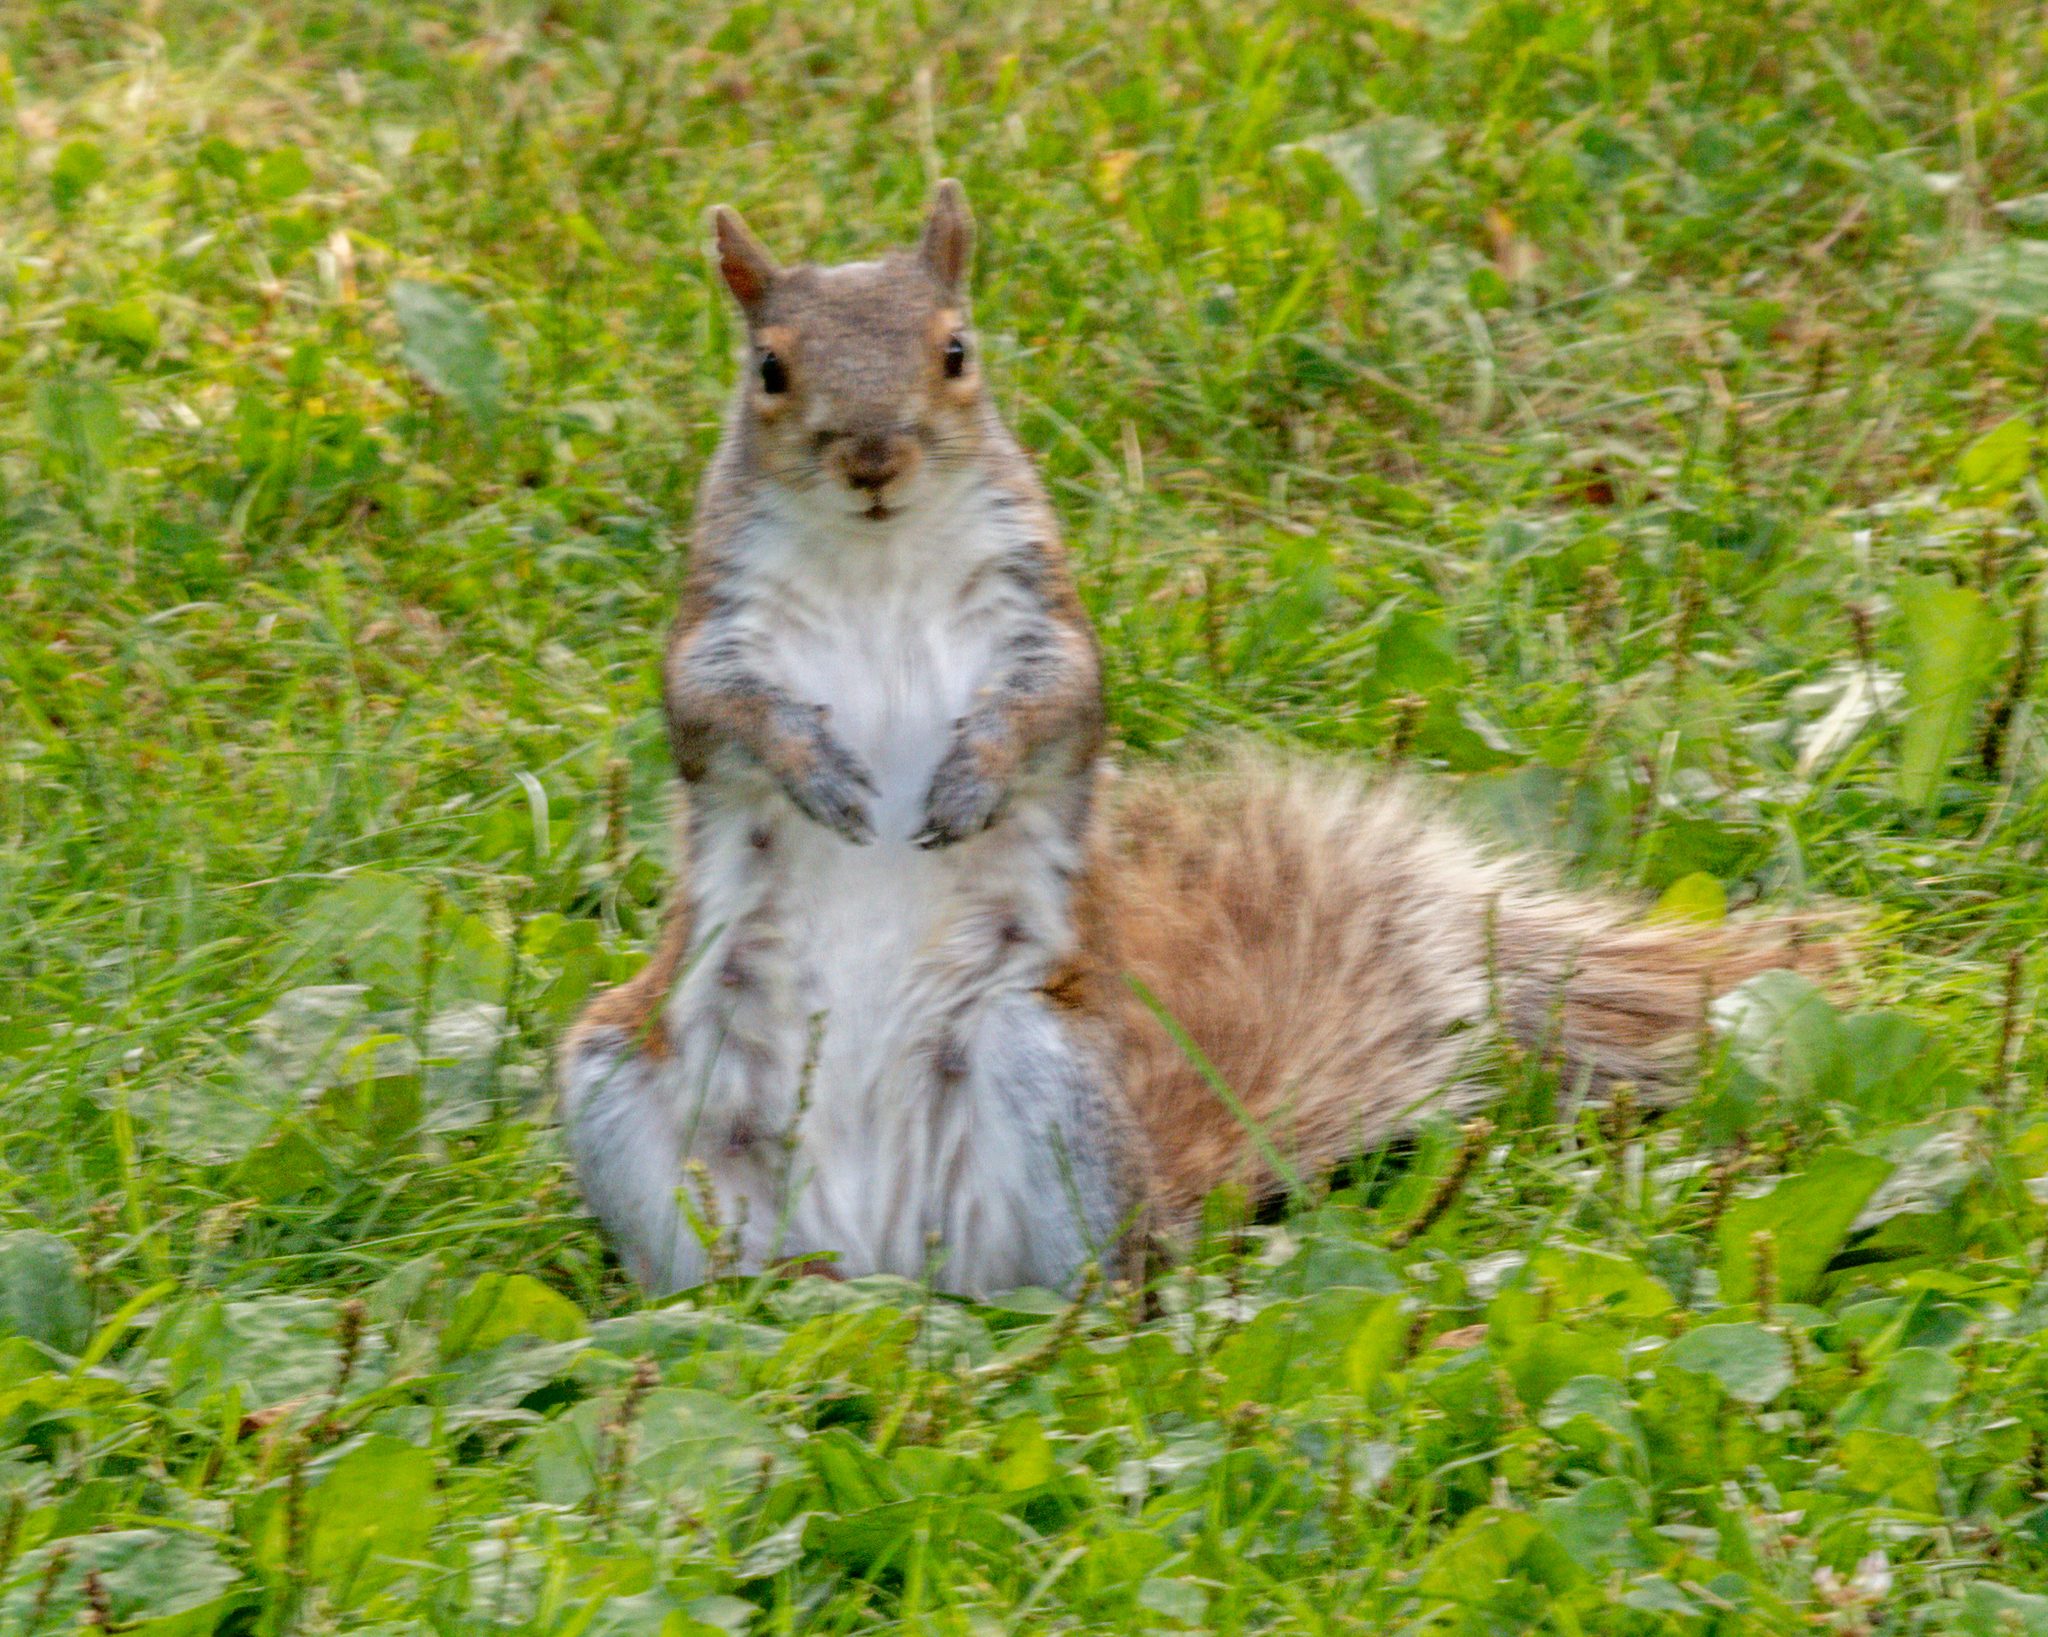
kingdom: Animalia
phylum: Chordata
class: Mammalia
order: Rodentia
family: Sciuridae
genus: Sciurus
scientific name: Sciurus carolinensis
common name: Eastern gray squirrel
